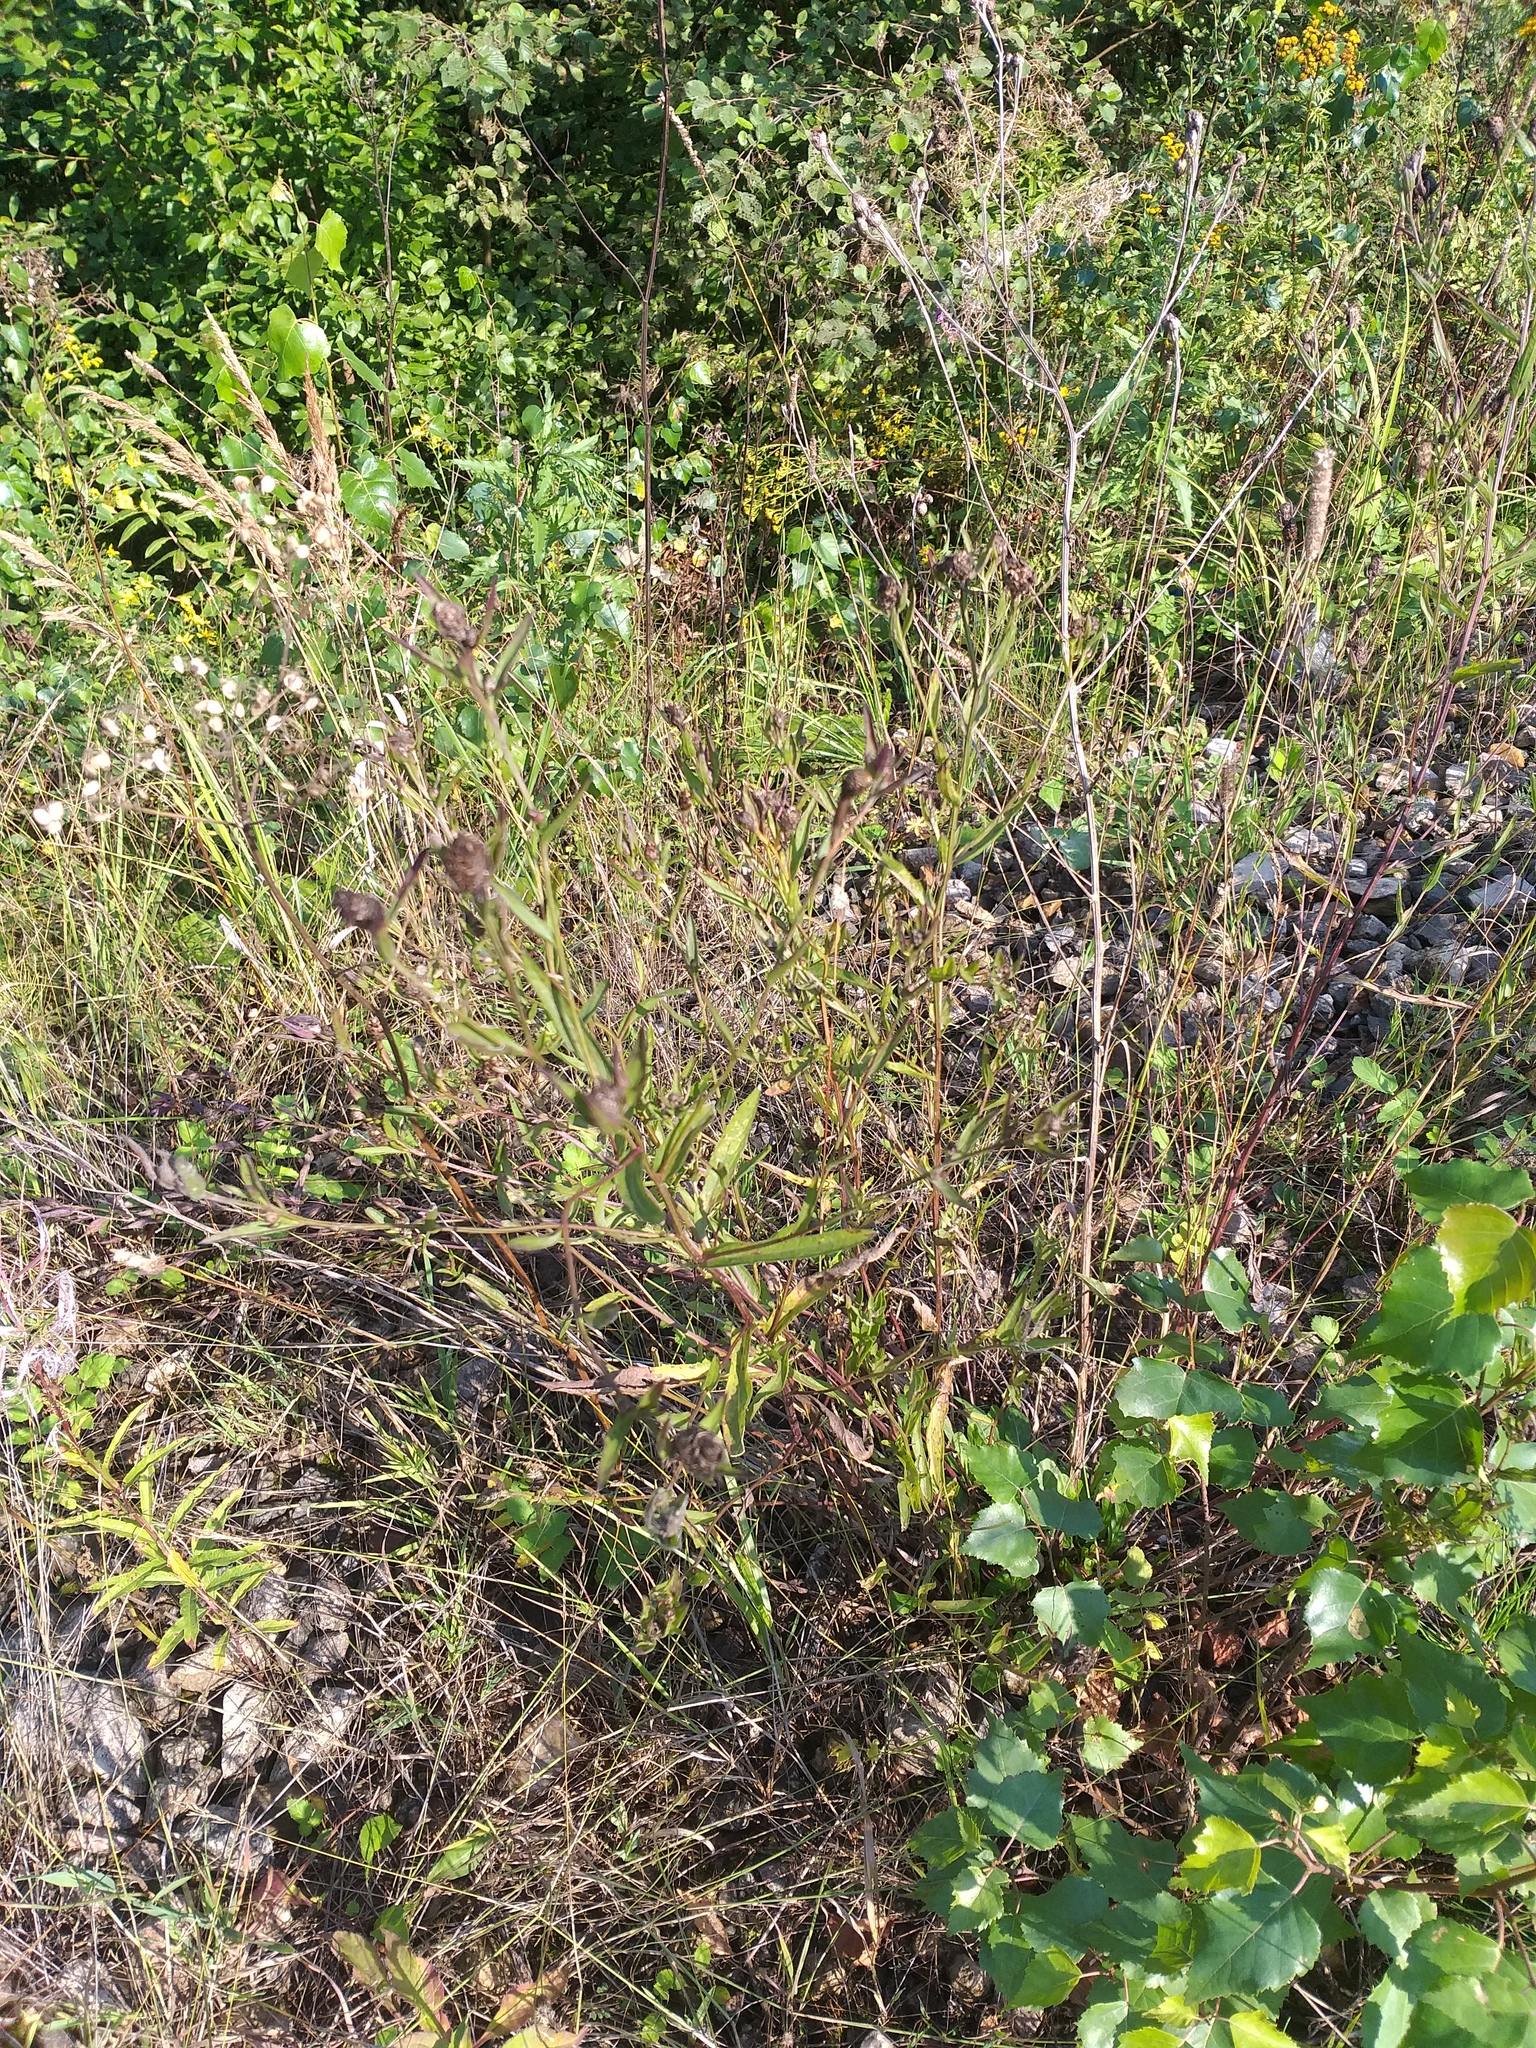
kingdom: Plantae
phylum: Tracheophyta
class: Magnoliopsida
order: Asterales
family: Asteraceae
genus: Centaurea
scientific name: Centaurea jacea
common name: Brown knapweed
